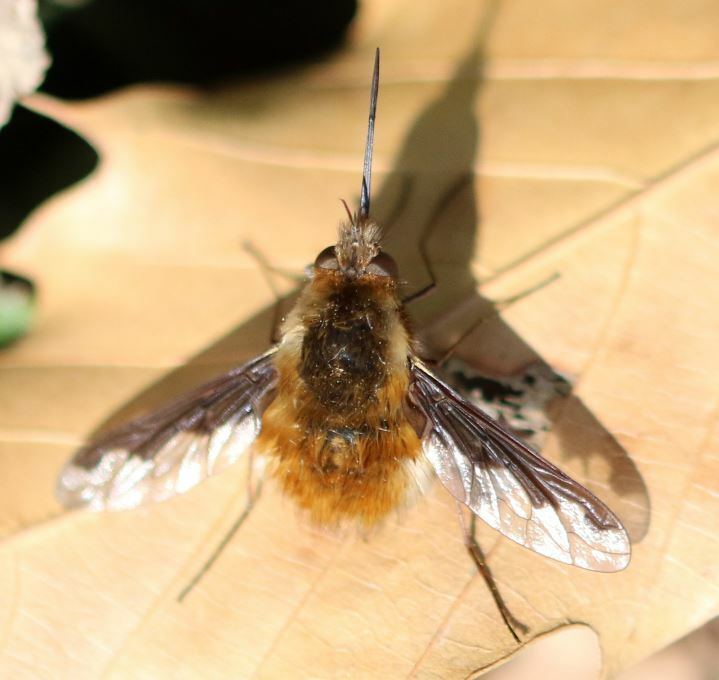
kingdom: Animalia
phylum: Arthropoda
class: Insecta
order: Diptera
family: Bombyliidae
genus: Bombylius
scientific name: Bombylius major
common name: Bee fly
